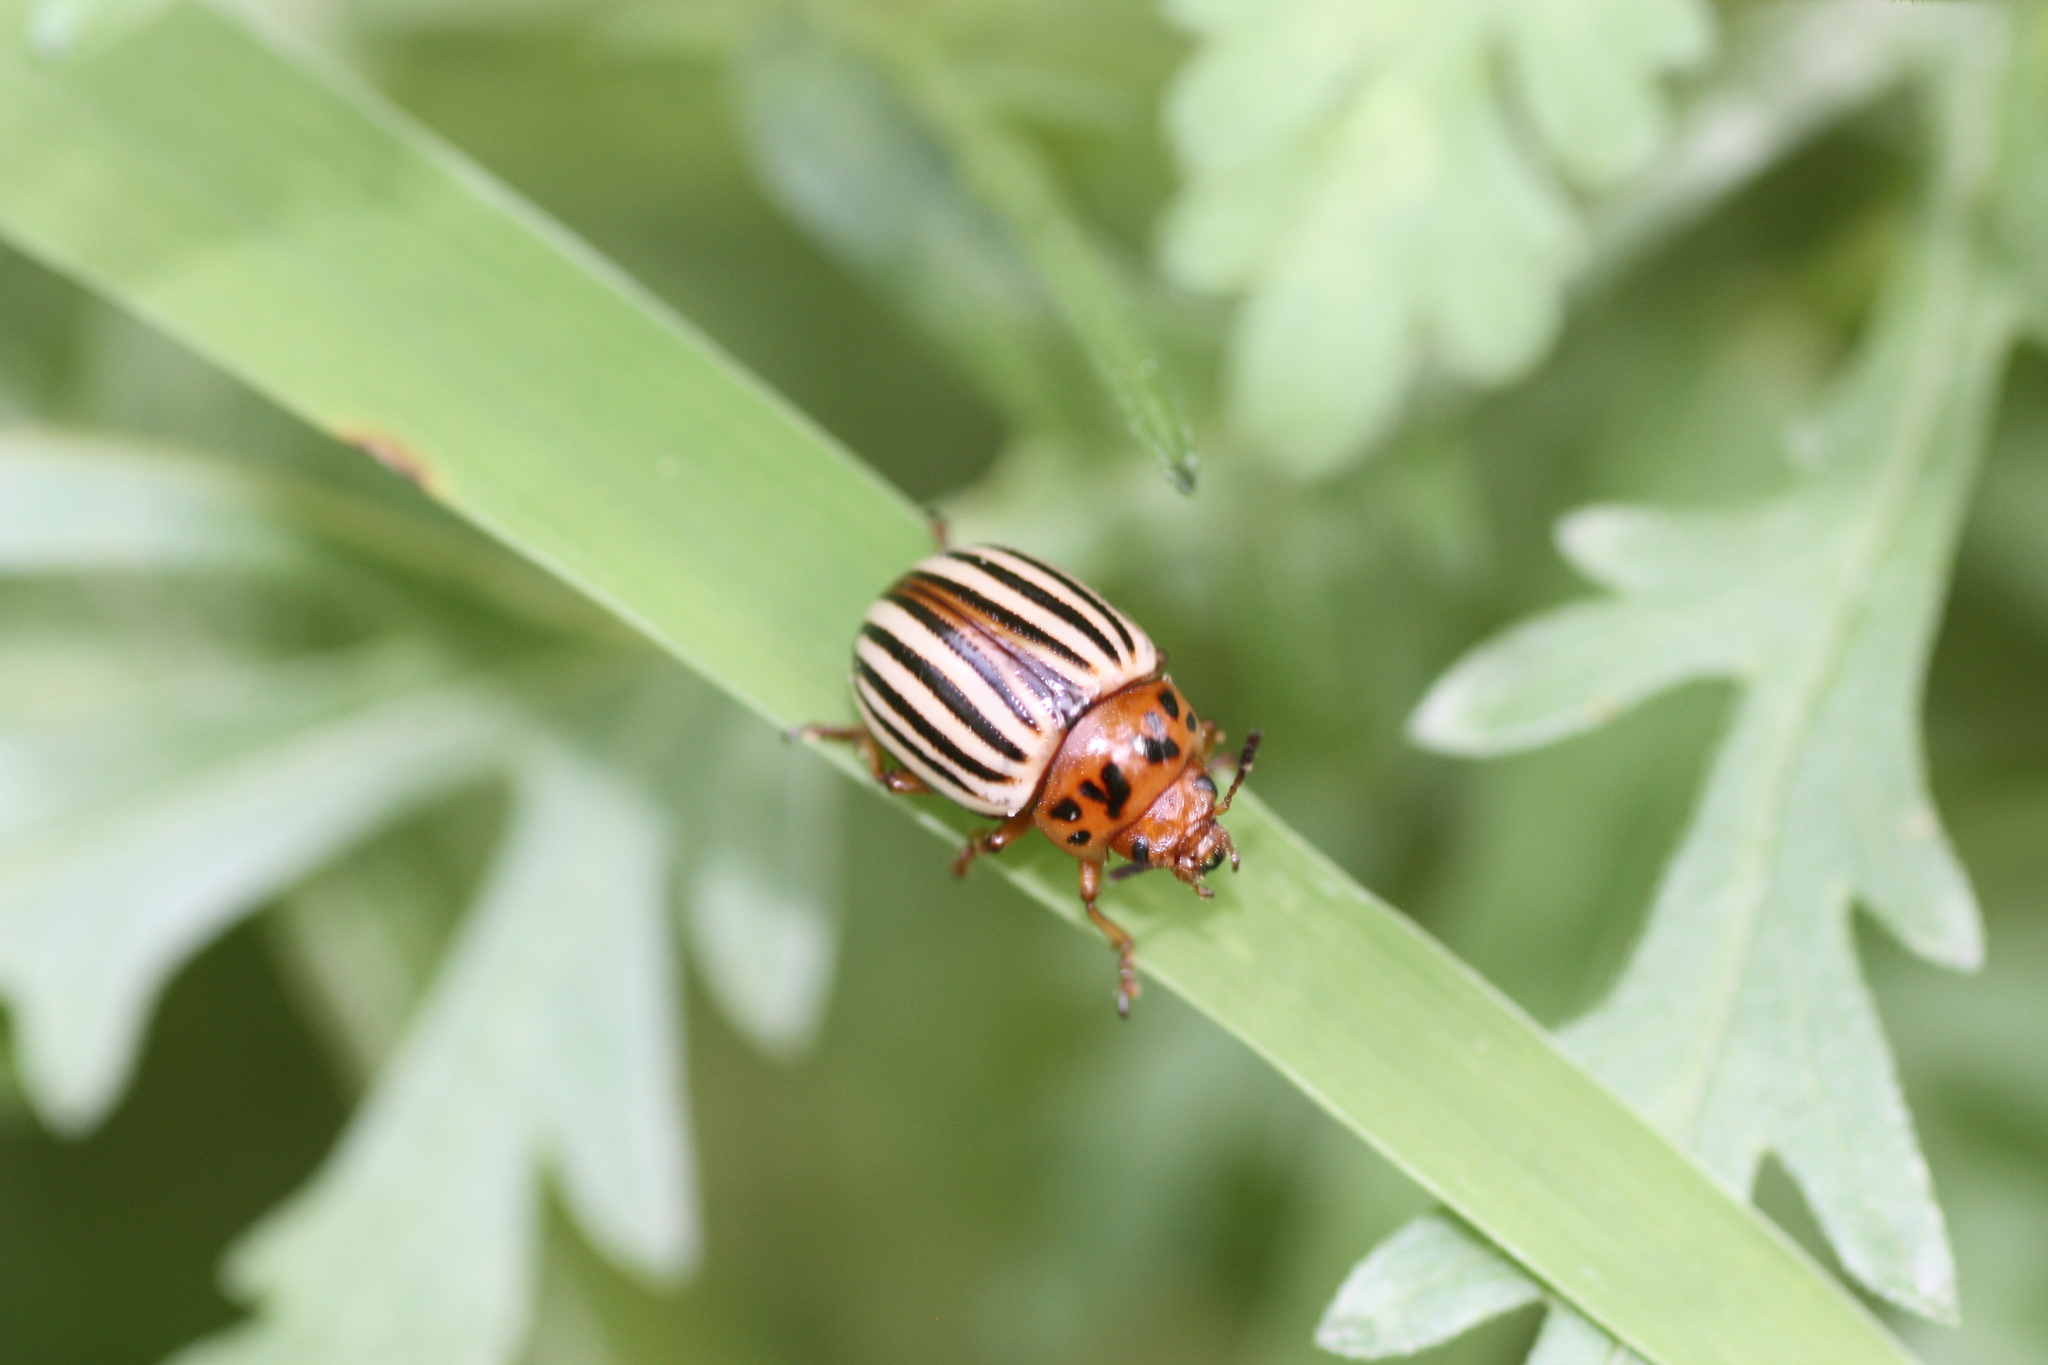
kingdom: Animalia
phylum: Arthropoda
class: Insecta
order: Coleoptera
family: Chrysomelidae
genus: Leptinotarsa
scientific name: Leptinotarsa decemlineata
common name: Colorado potato beetle
